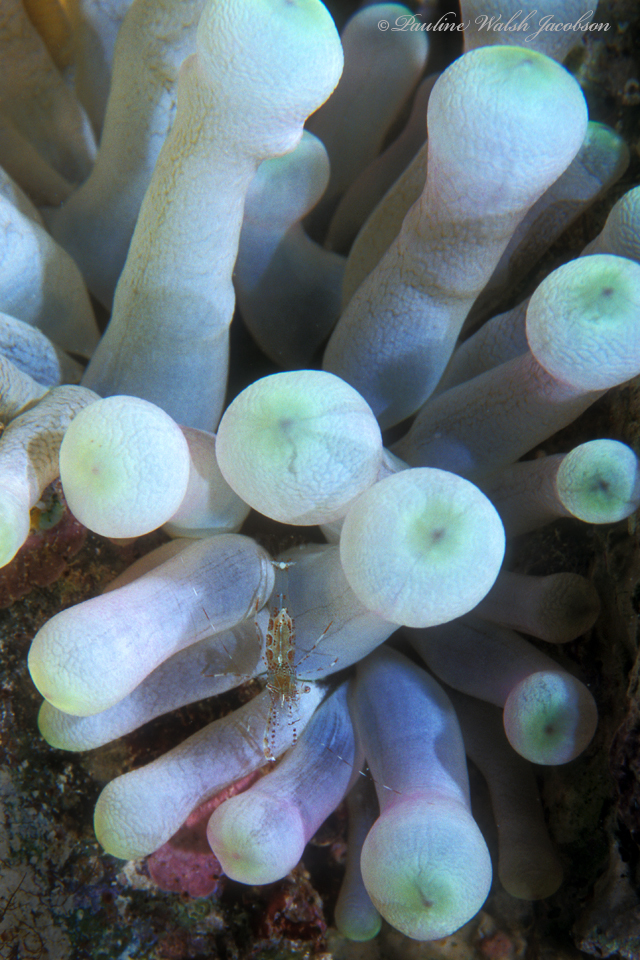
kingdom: Animalia
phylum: Arthropoda
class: Malacostraca
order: Decapoda
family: Palaemonidae
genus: Periclimenes
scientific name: Periclimenes rathbunae
